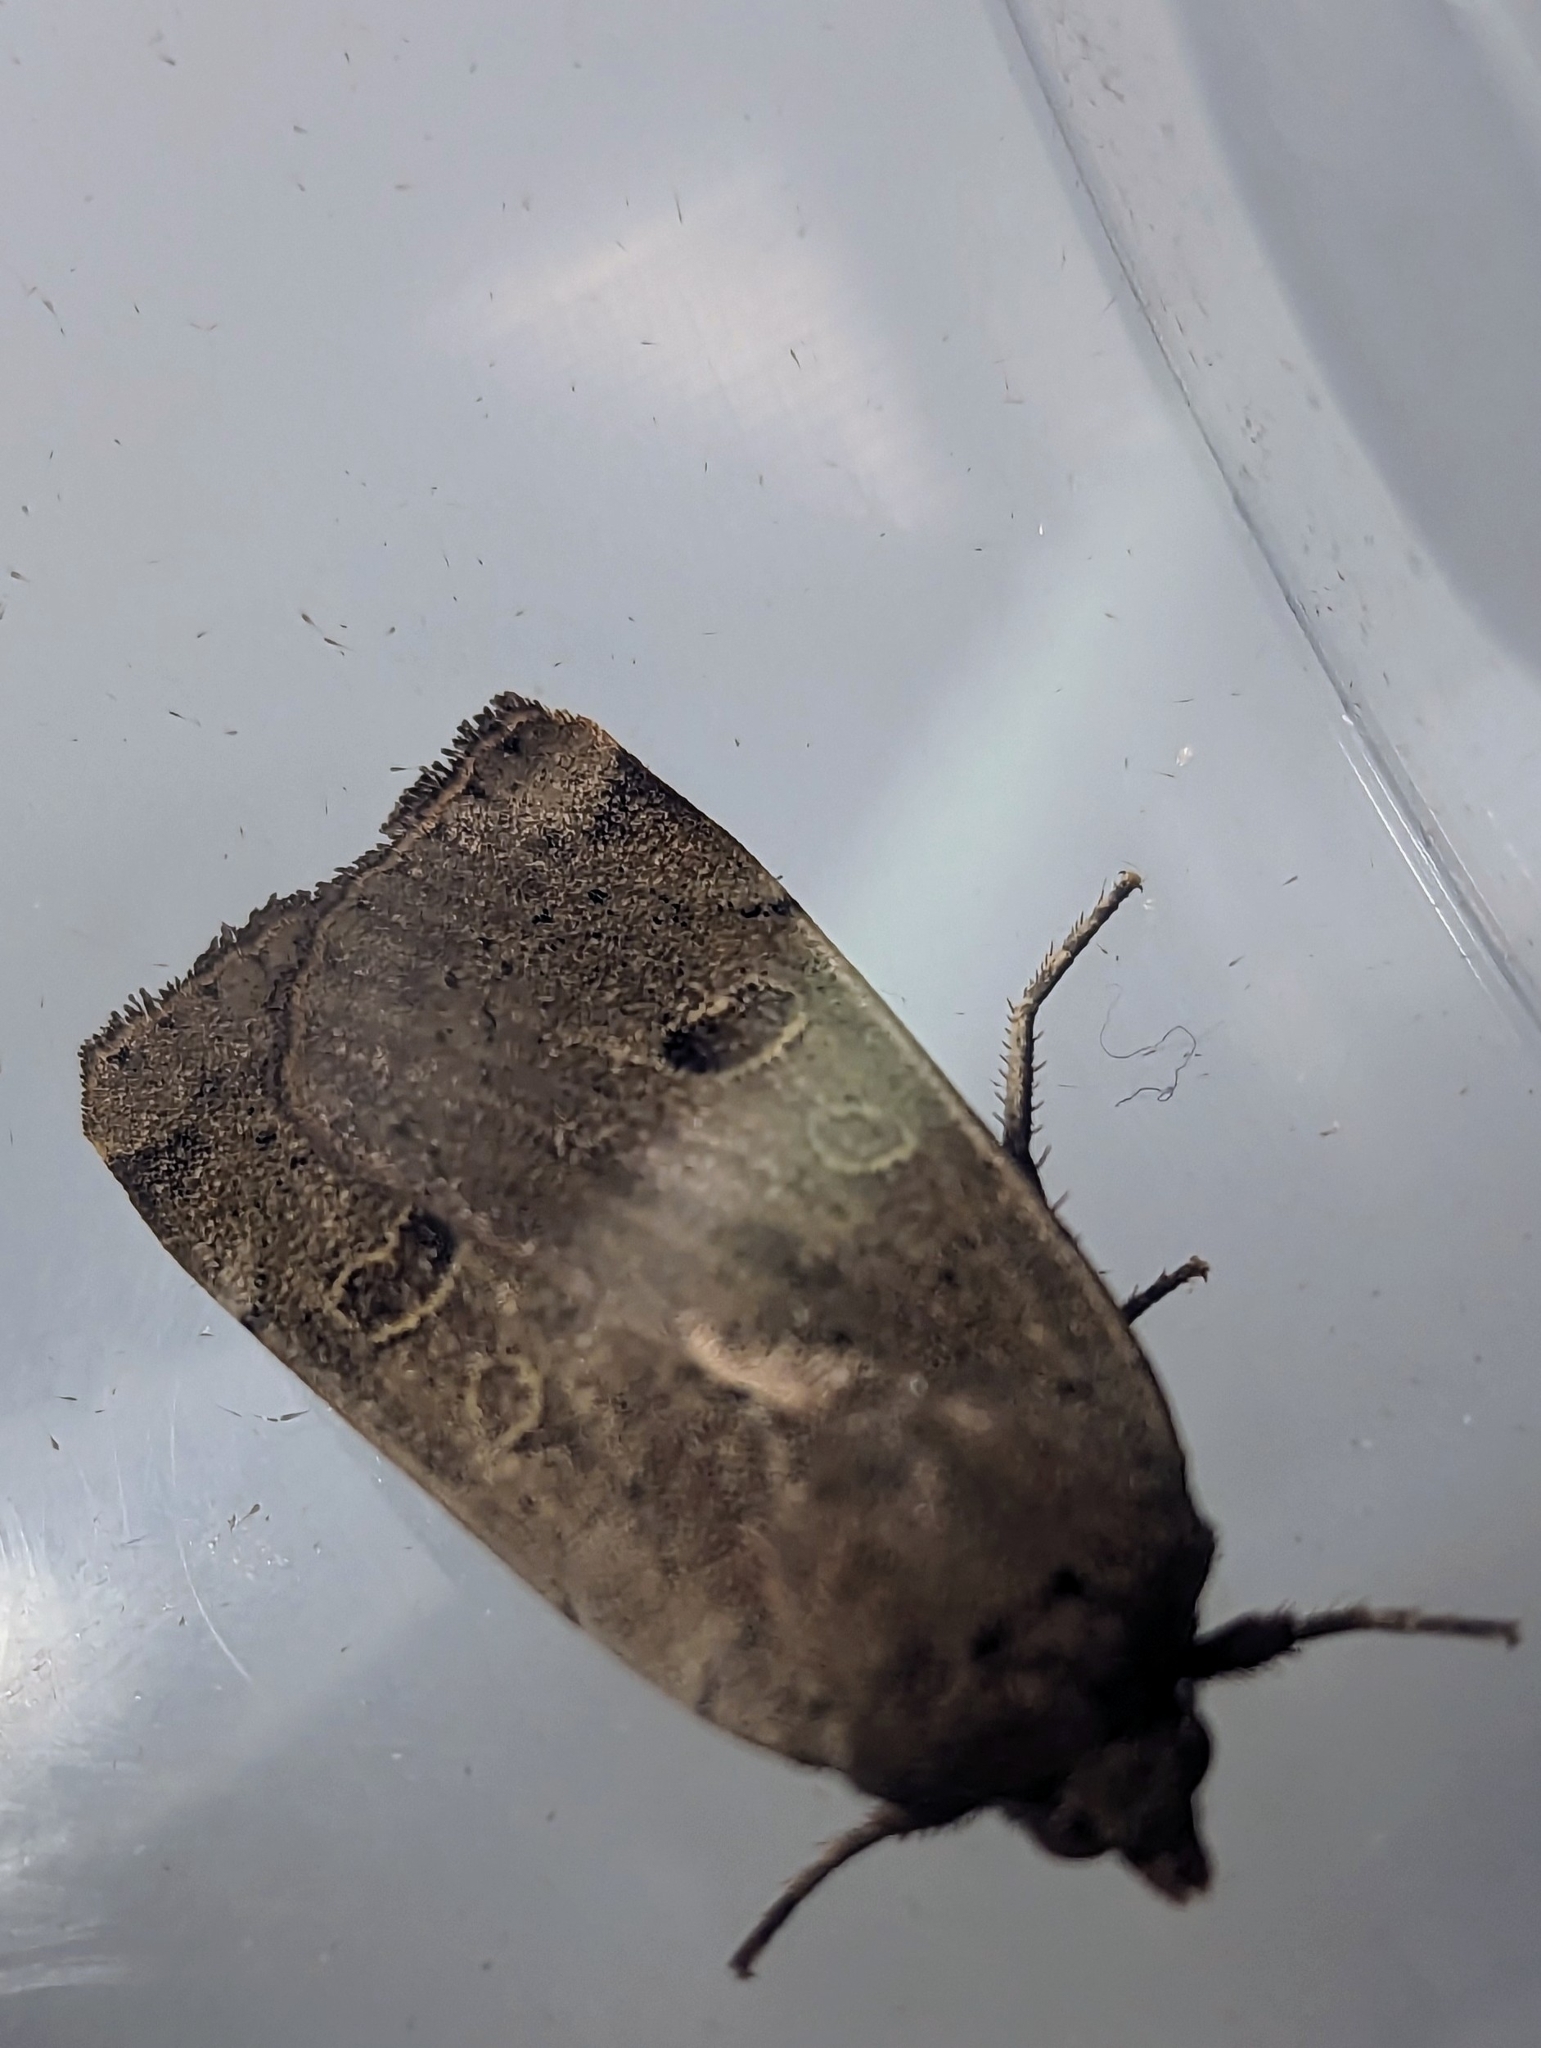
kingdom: Animalia
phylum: Arthropoda
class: Insecta
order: Lepidoptera
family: Noctuidae
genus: Noctua
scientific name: Noctua comes
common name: Lesser yellow underwing
